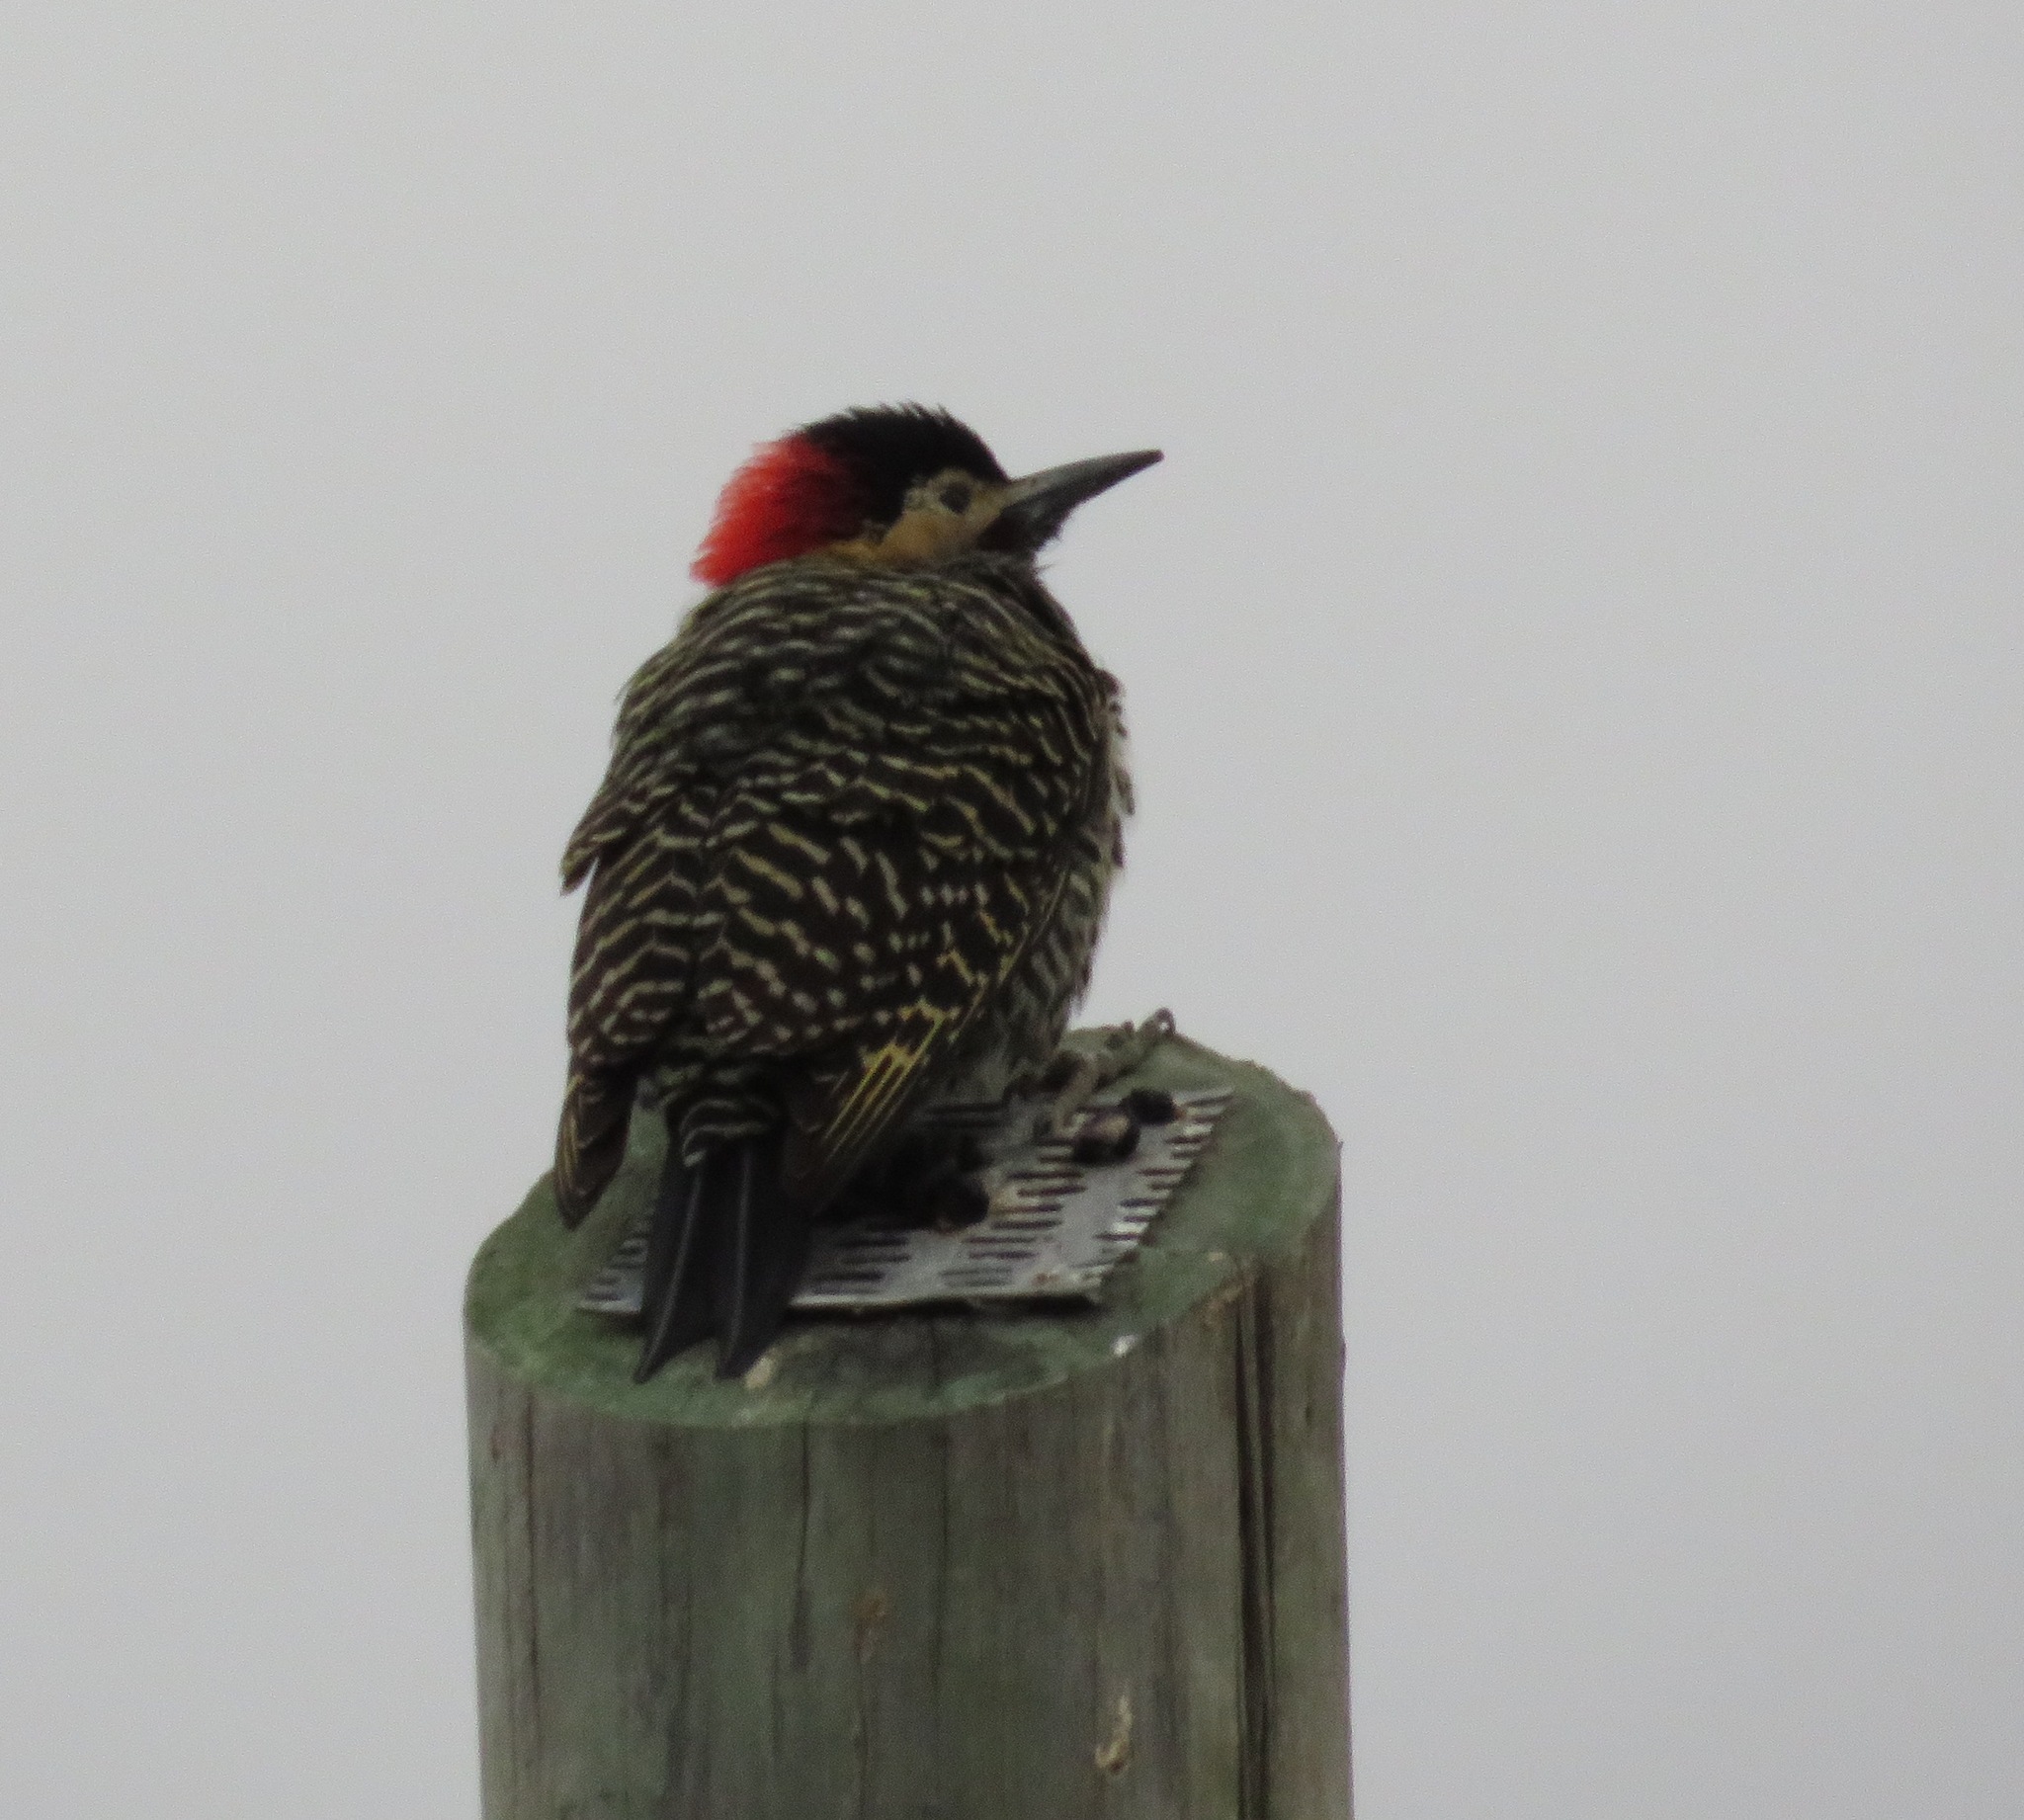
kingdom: Animalia
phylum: Chordata
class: Aves
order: Piciformes
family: Picidae
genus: Colaptes
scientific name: Colaptes melanochloros
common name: Green-barred woodpecker
